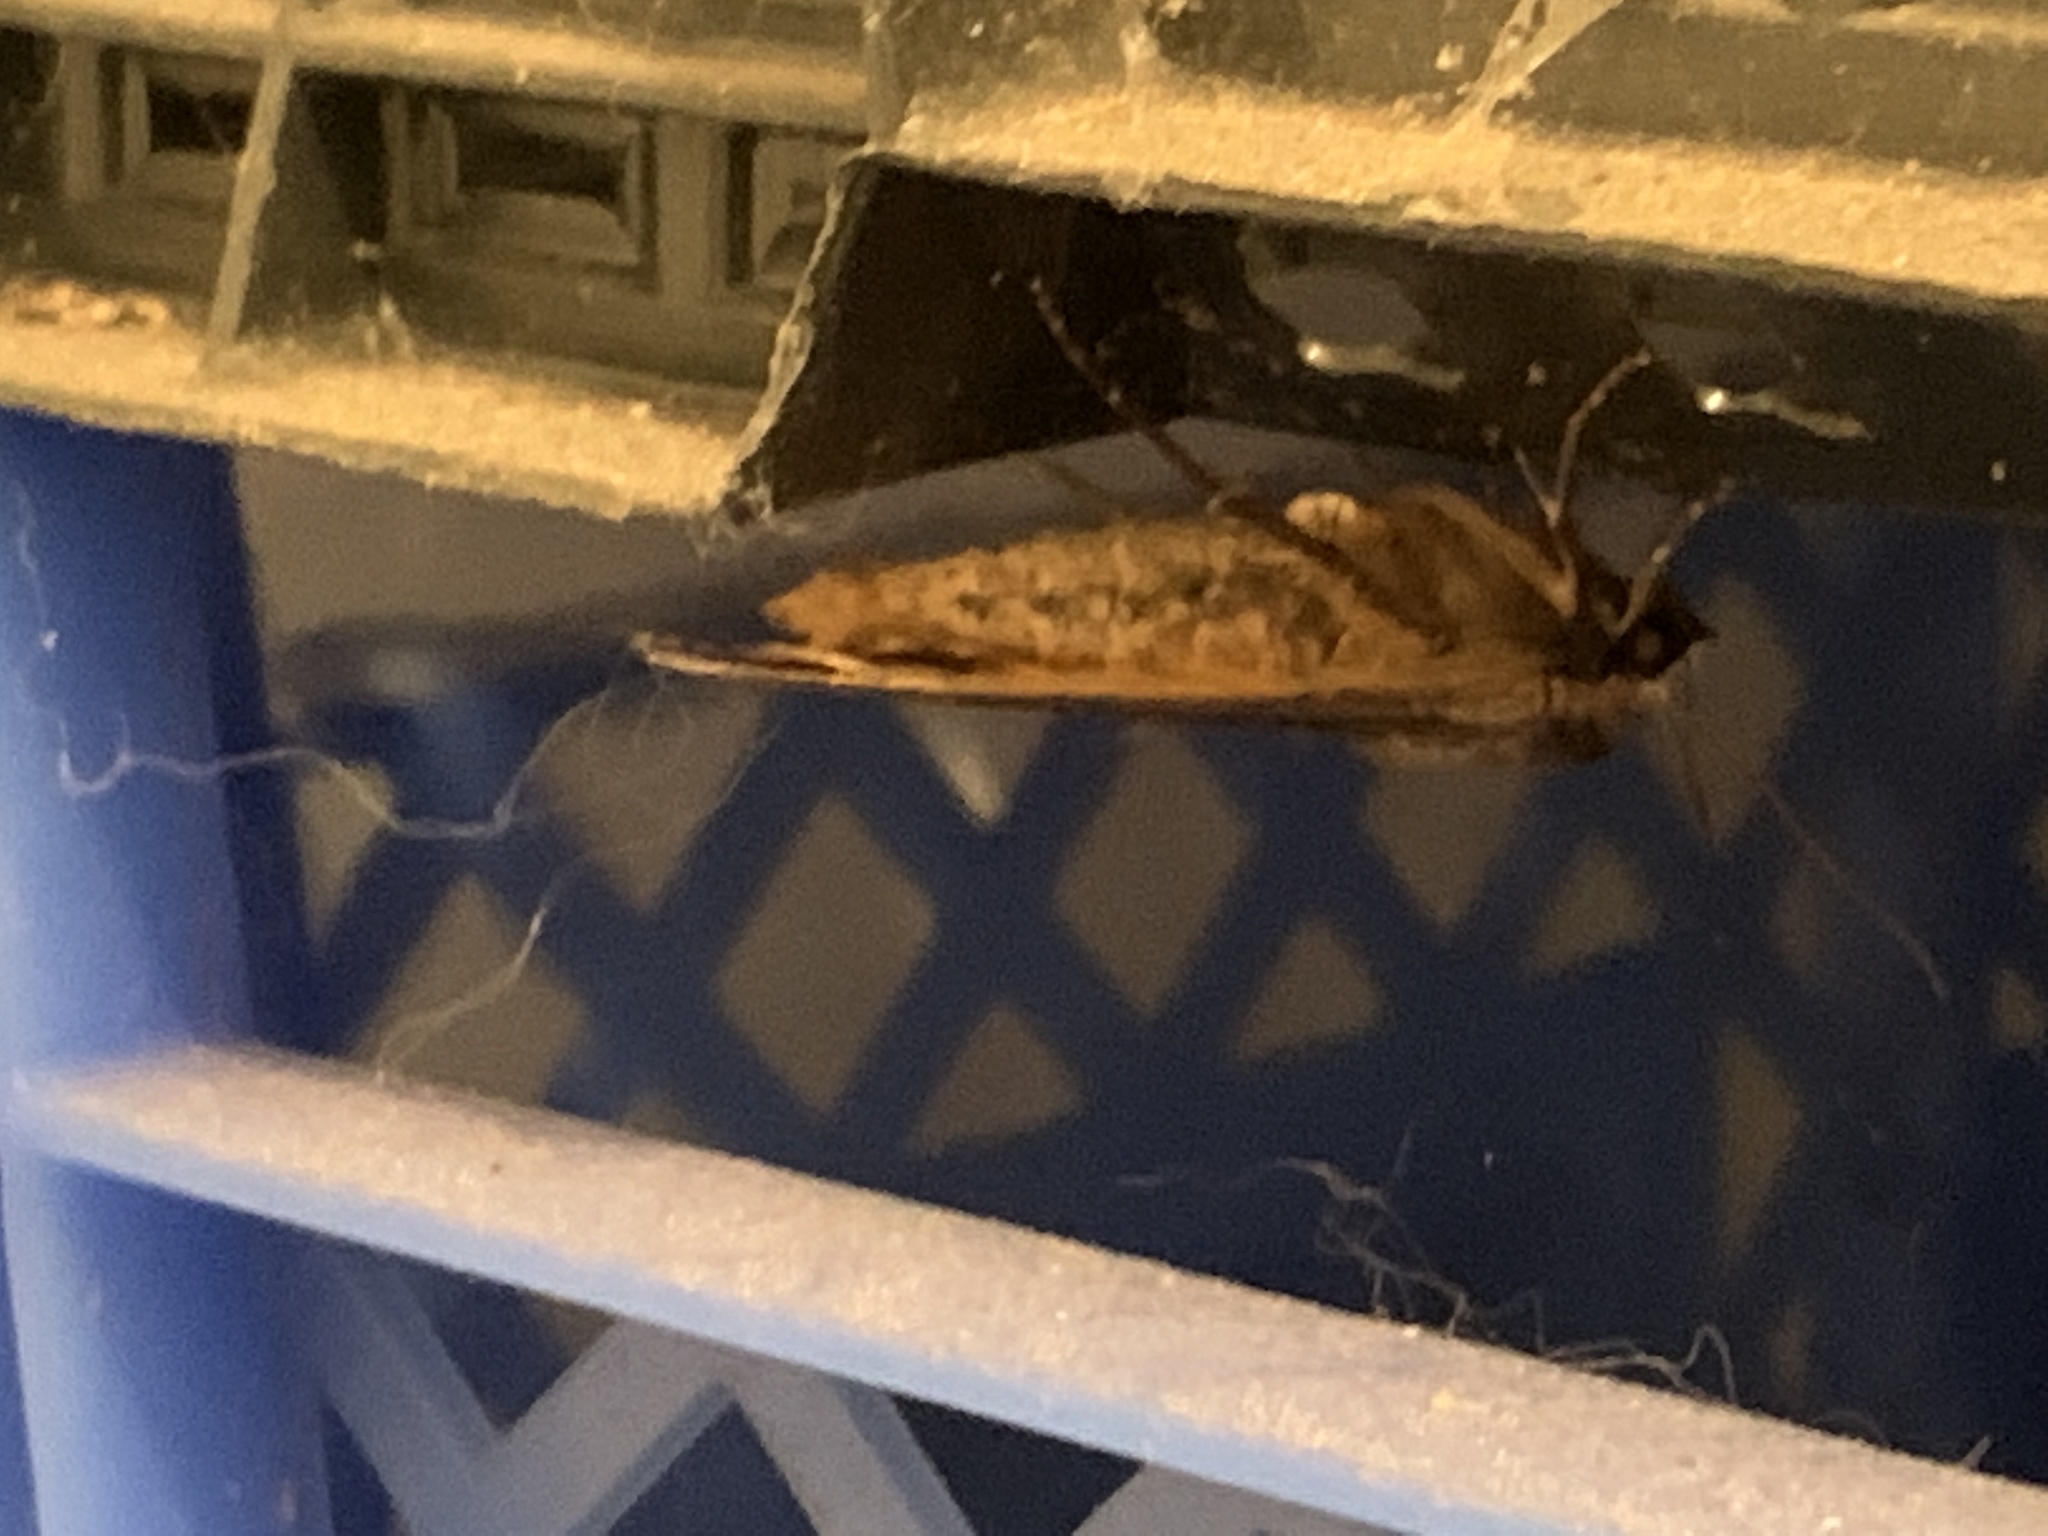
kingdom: Animalia
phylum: Arthropoda
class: Insecta
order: Lepidoptera
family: Noctuidae
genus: Noctua
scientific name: Noctua pronuba
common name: Large yellow underwing
